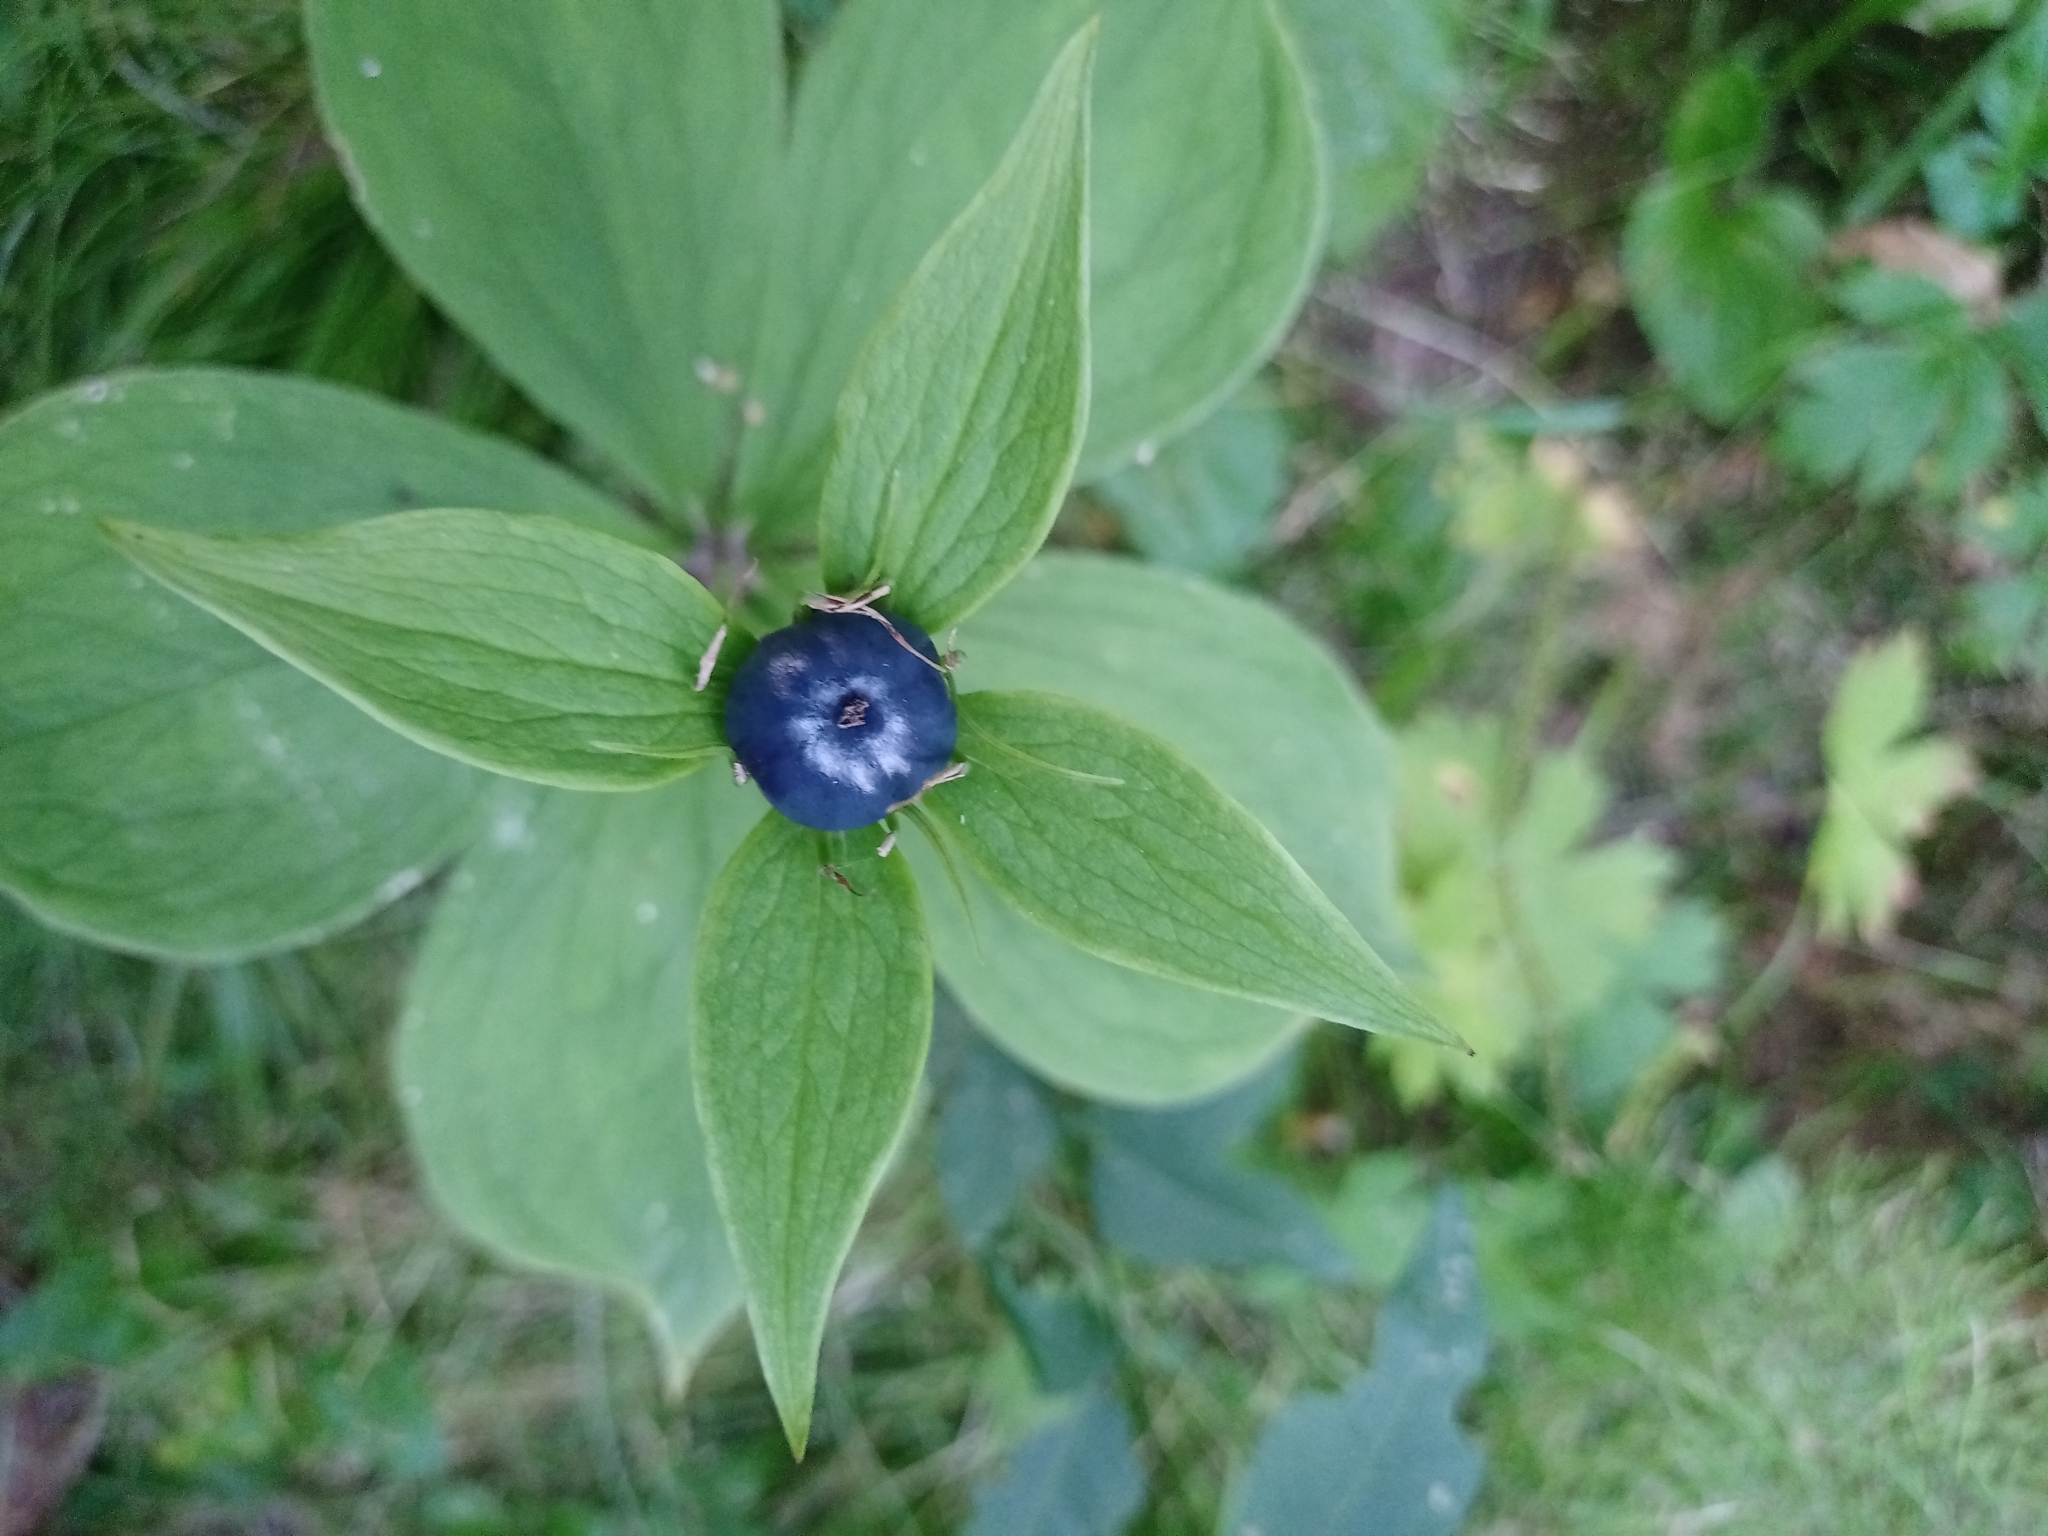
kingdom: Plantae
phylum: Tracheophyta
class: Liliopsida
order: Liliales
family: Melanthiaceae
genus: Paris
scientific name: Paris verticillata
